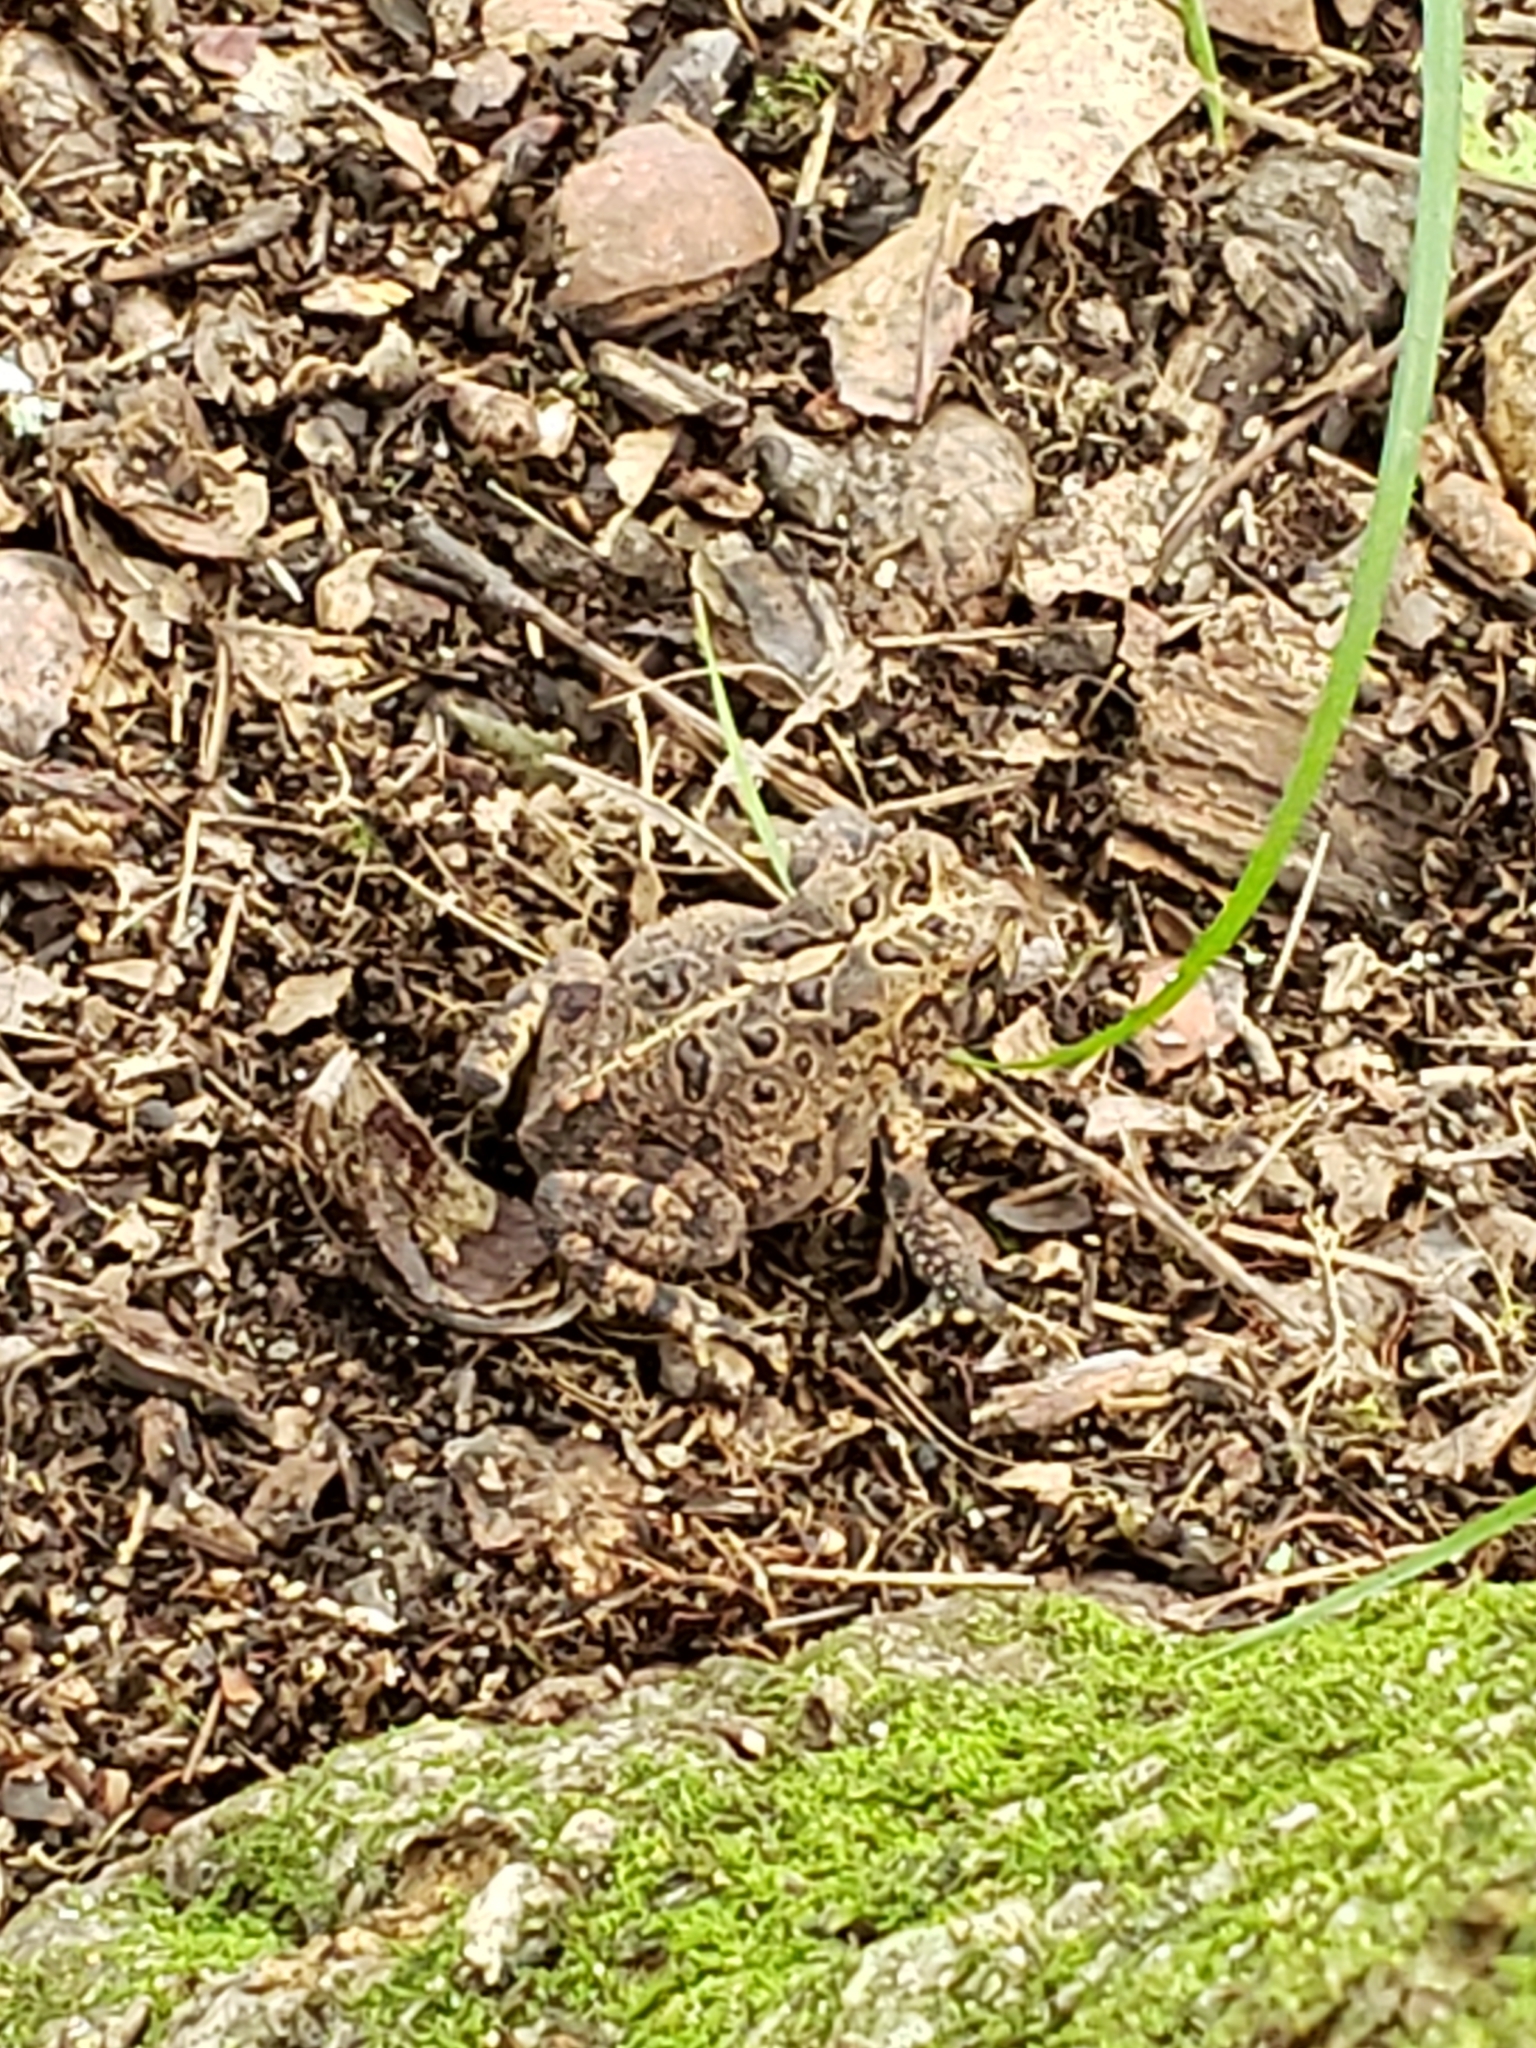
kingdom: Animalia
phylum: Chordata
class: Amphibia
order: Anura
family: Bufonidae
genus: Anaxyrus
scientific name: Anaxyrus americanus
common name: American toad
